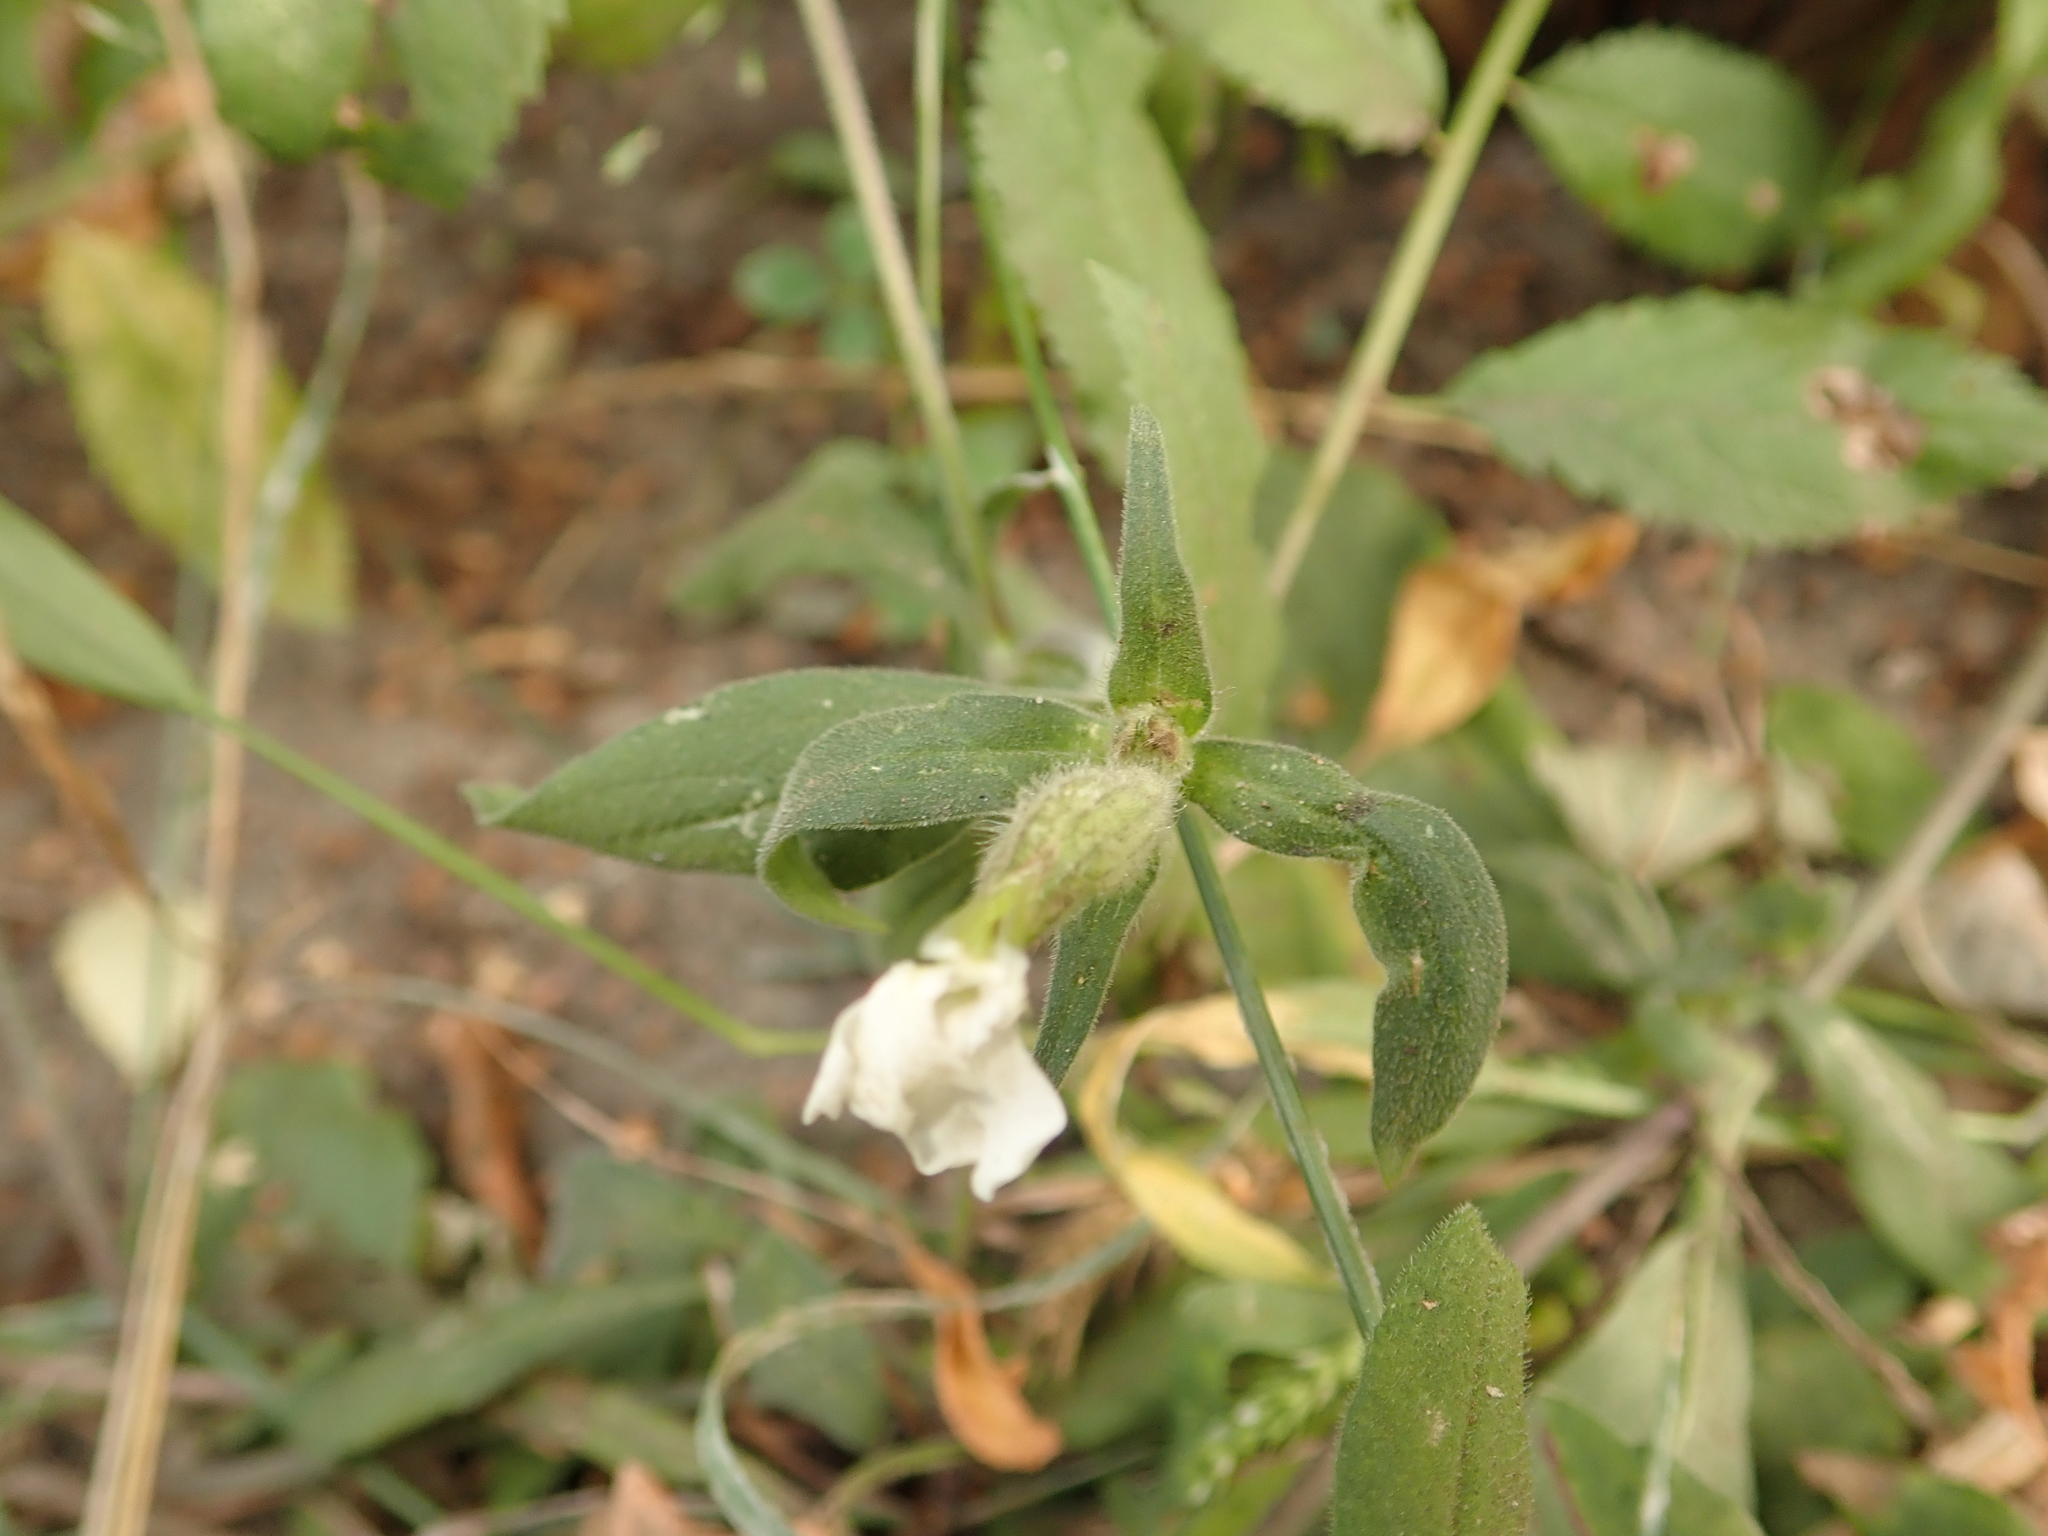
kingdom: Plantae
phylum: Tracheophyta
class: Magnoliopsida
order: Caryophyllales
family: Caryophyllaceae
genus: Silene
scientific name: Silene latifolia
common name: White campion
